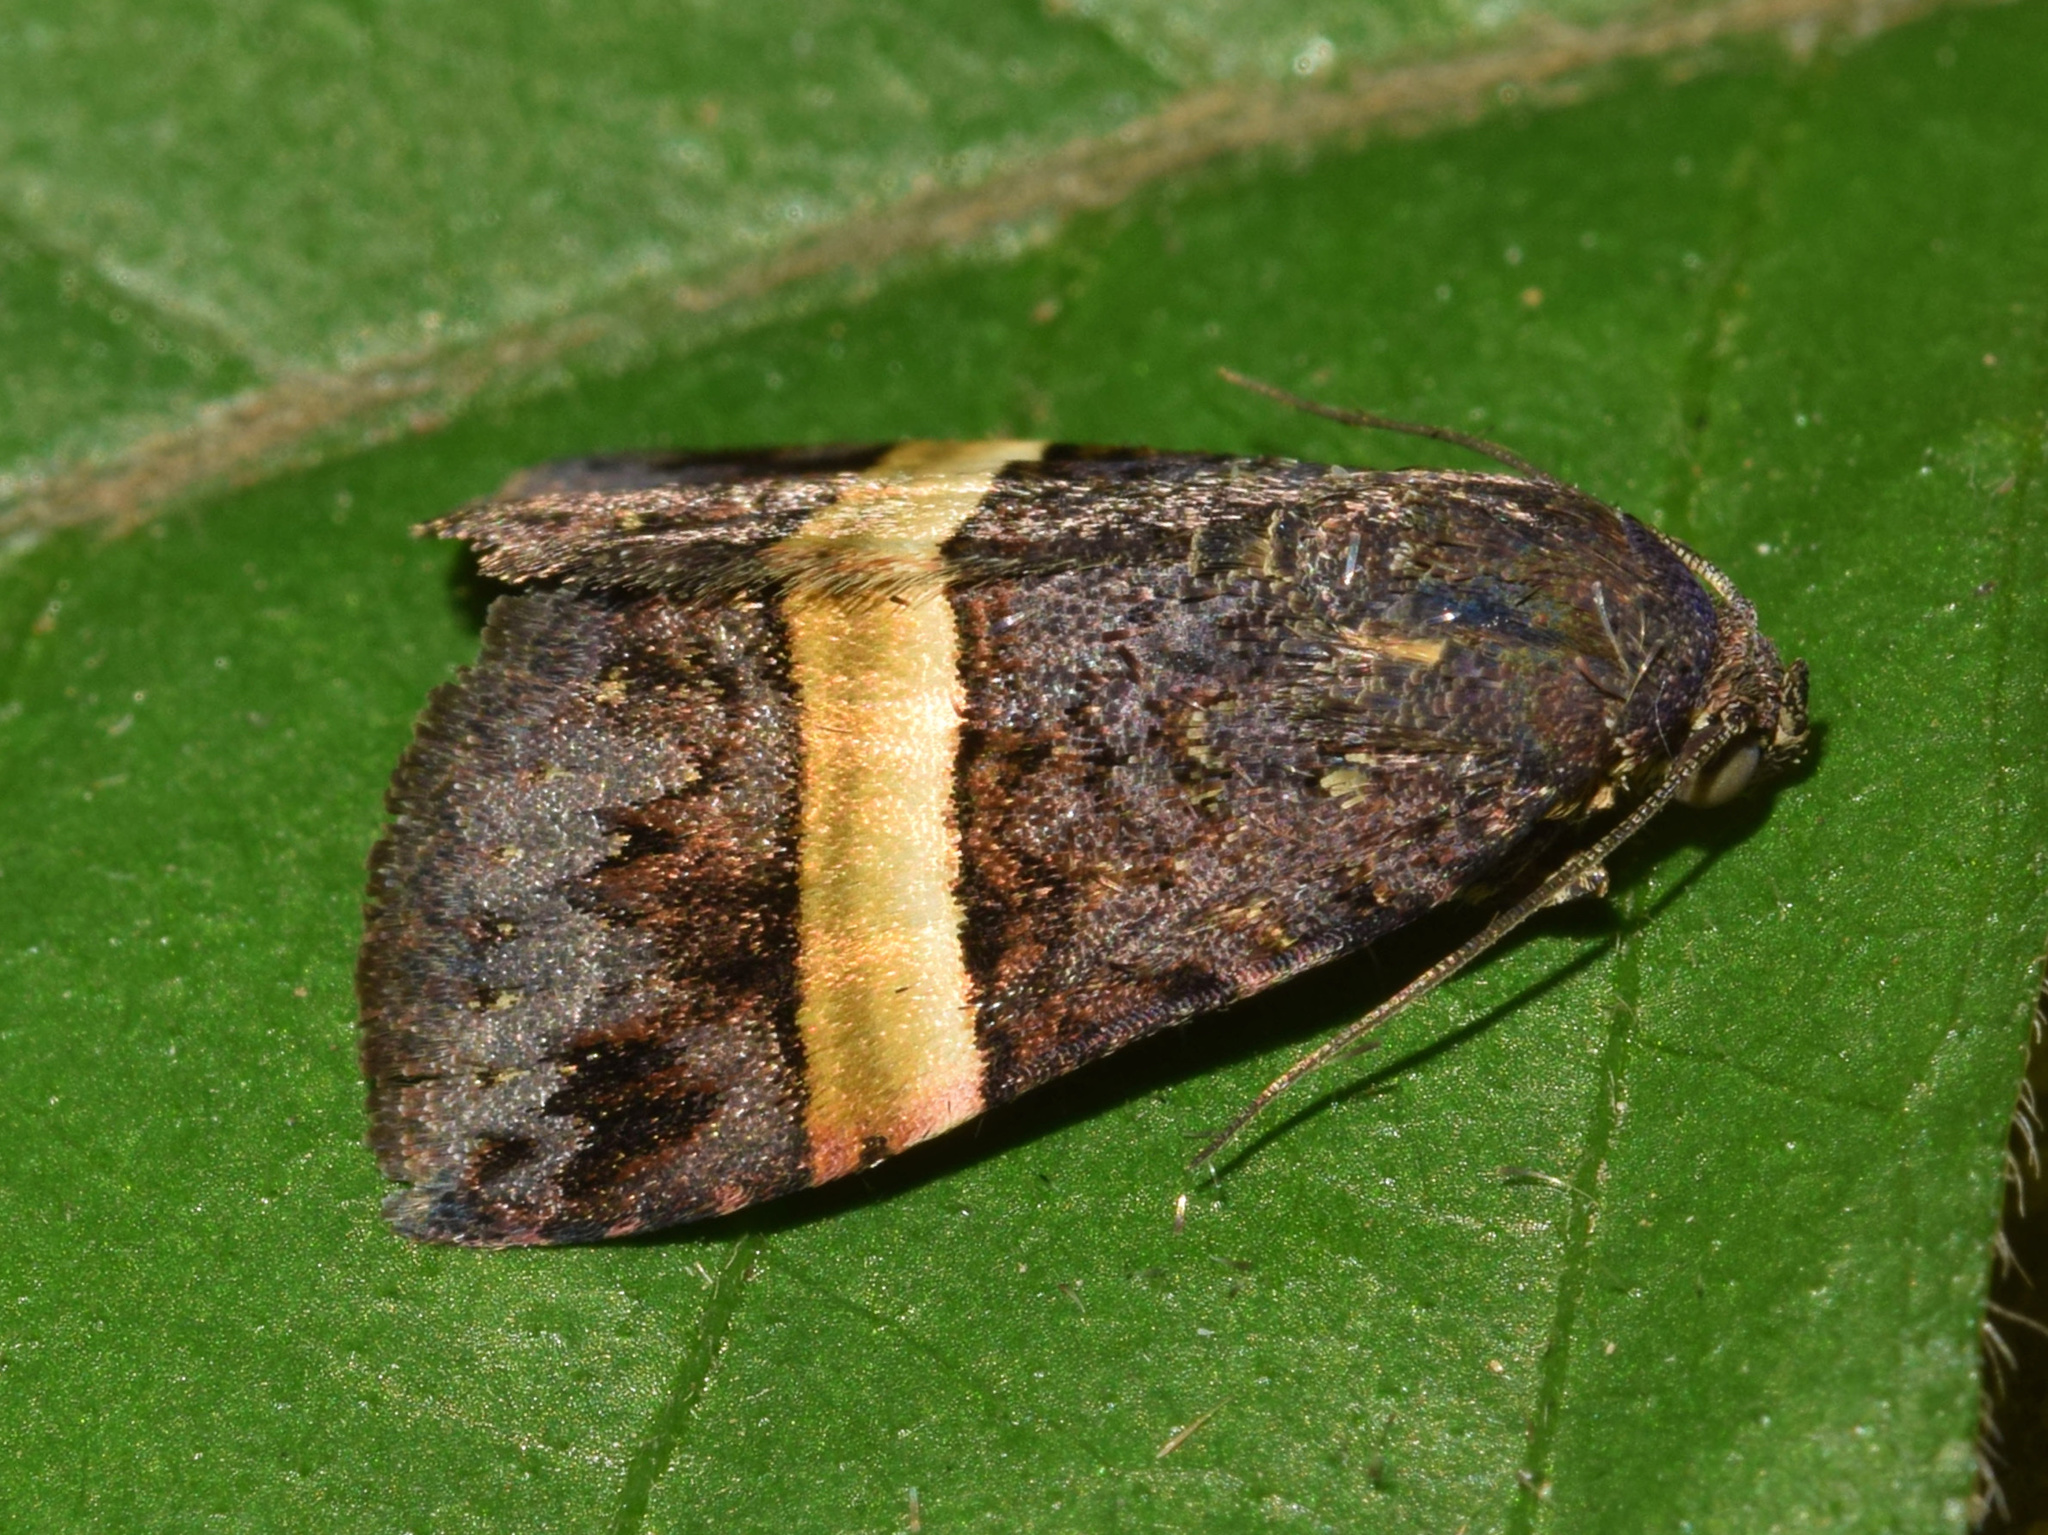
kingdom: Animalia
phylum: Arthropoda
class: Insecta
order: Lepidoptera
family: Noctuidae
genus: Ozarba
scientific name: Ozarba abscissa
